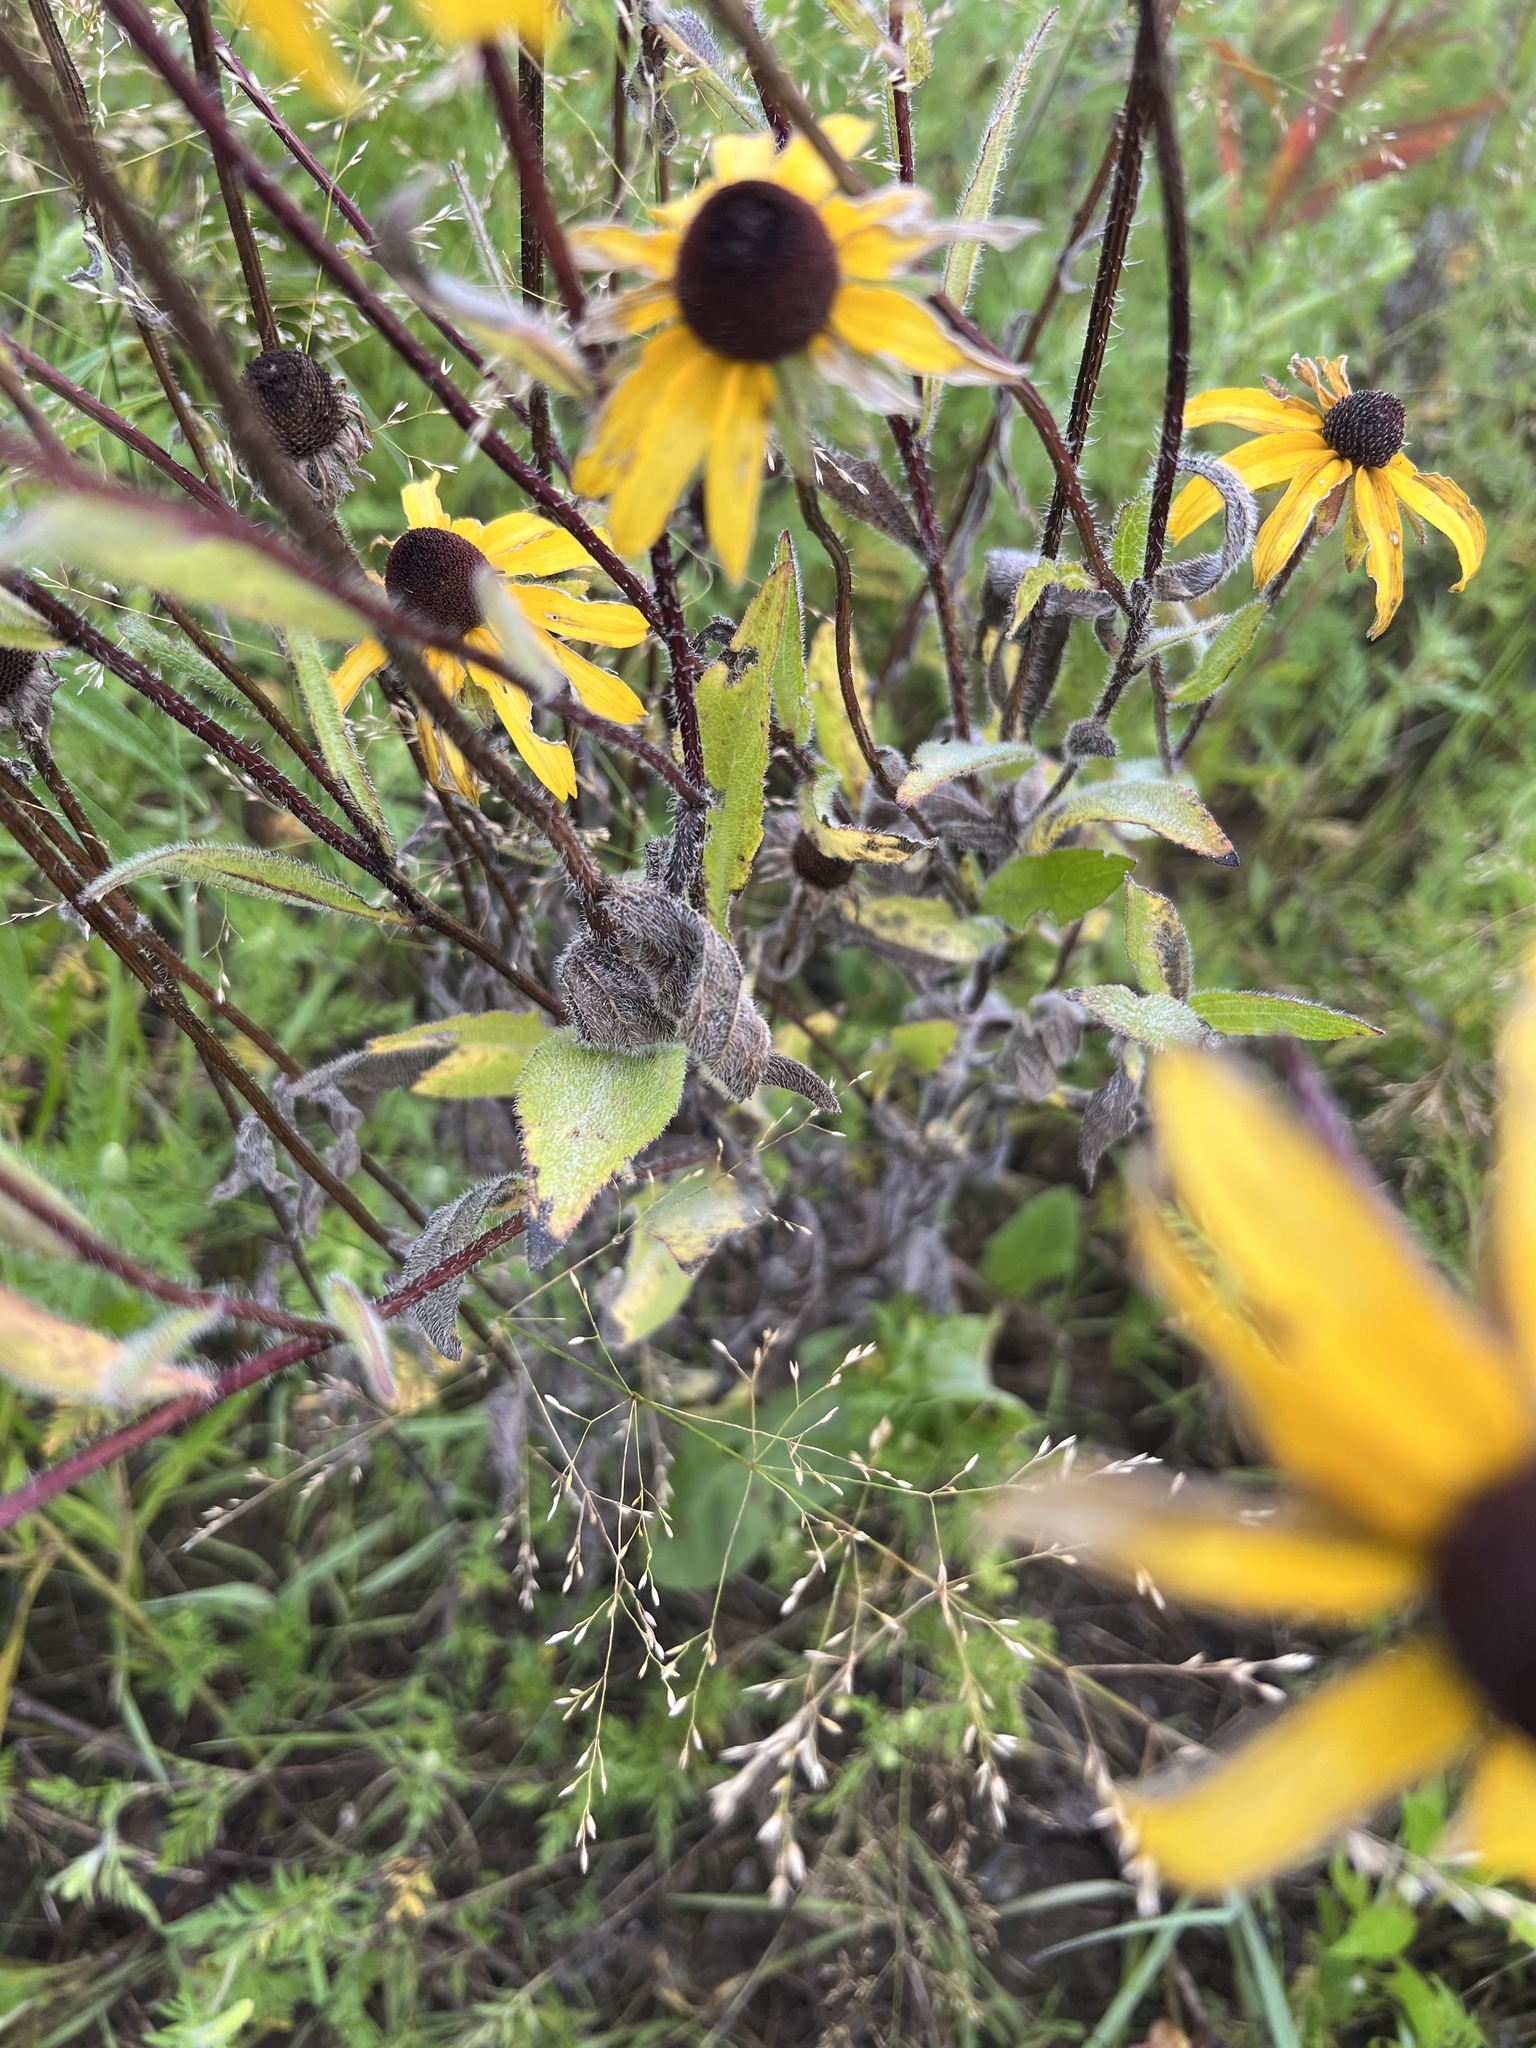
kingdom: Plantae
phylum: Tracheophyta
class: Magnoliopsida
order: Asterales
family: Asteraceae
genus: Rudbeckia
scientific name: Rudbeckia hirta
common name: Black-eyed-susan
